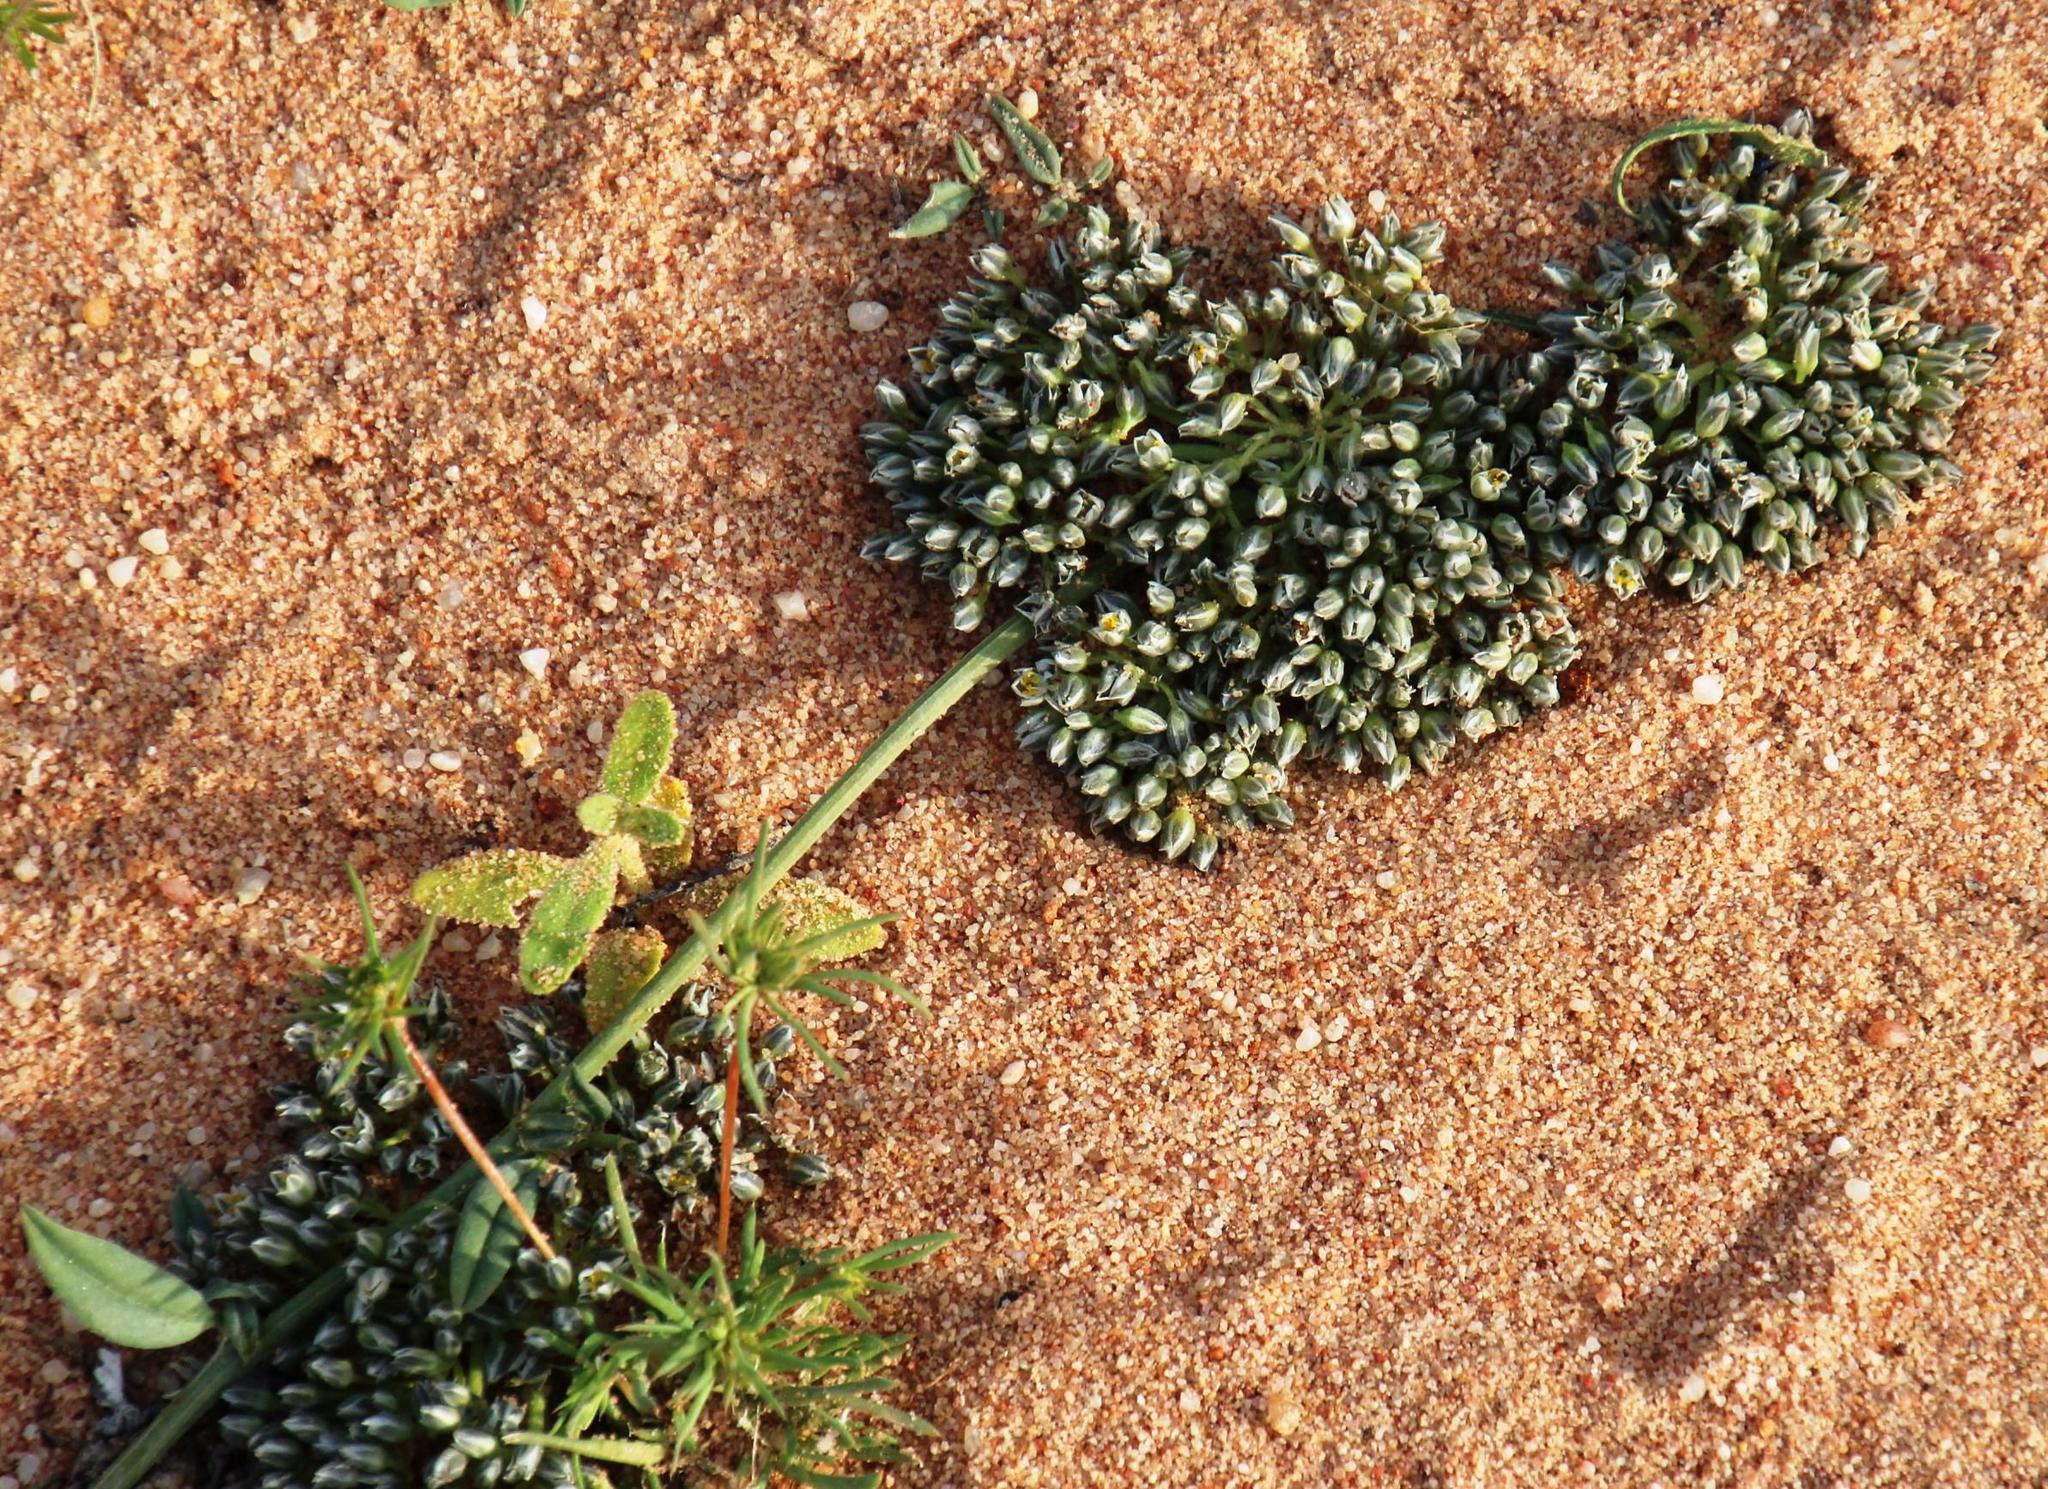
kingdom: Plantae
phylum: Tracheophyta
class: Magnoliopsida
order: Caryophyllales
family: Limeaceae
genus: Limeum
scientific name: Limeum africanum
